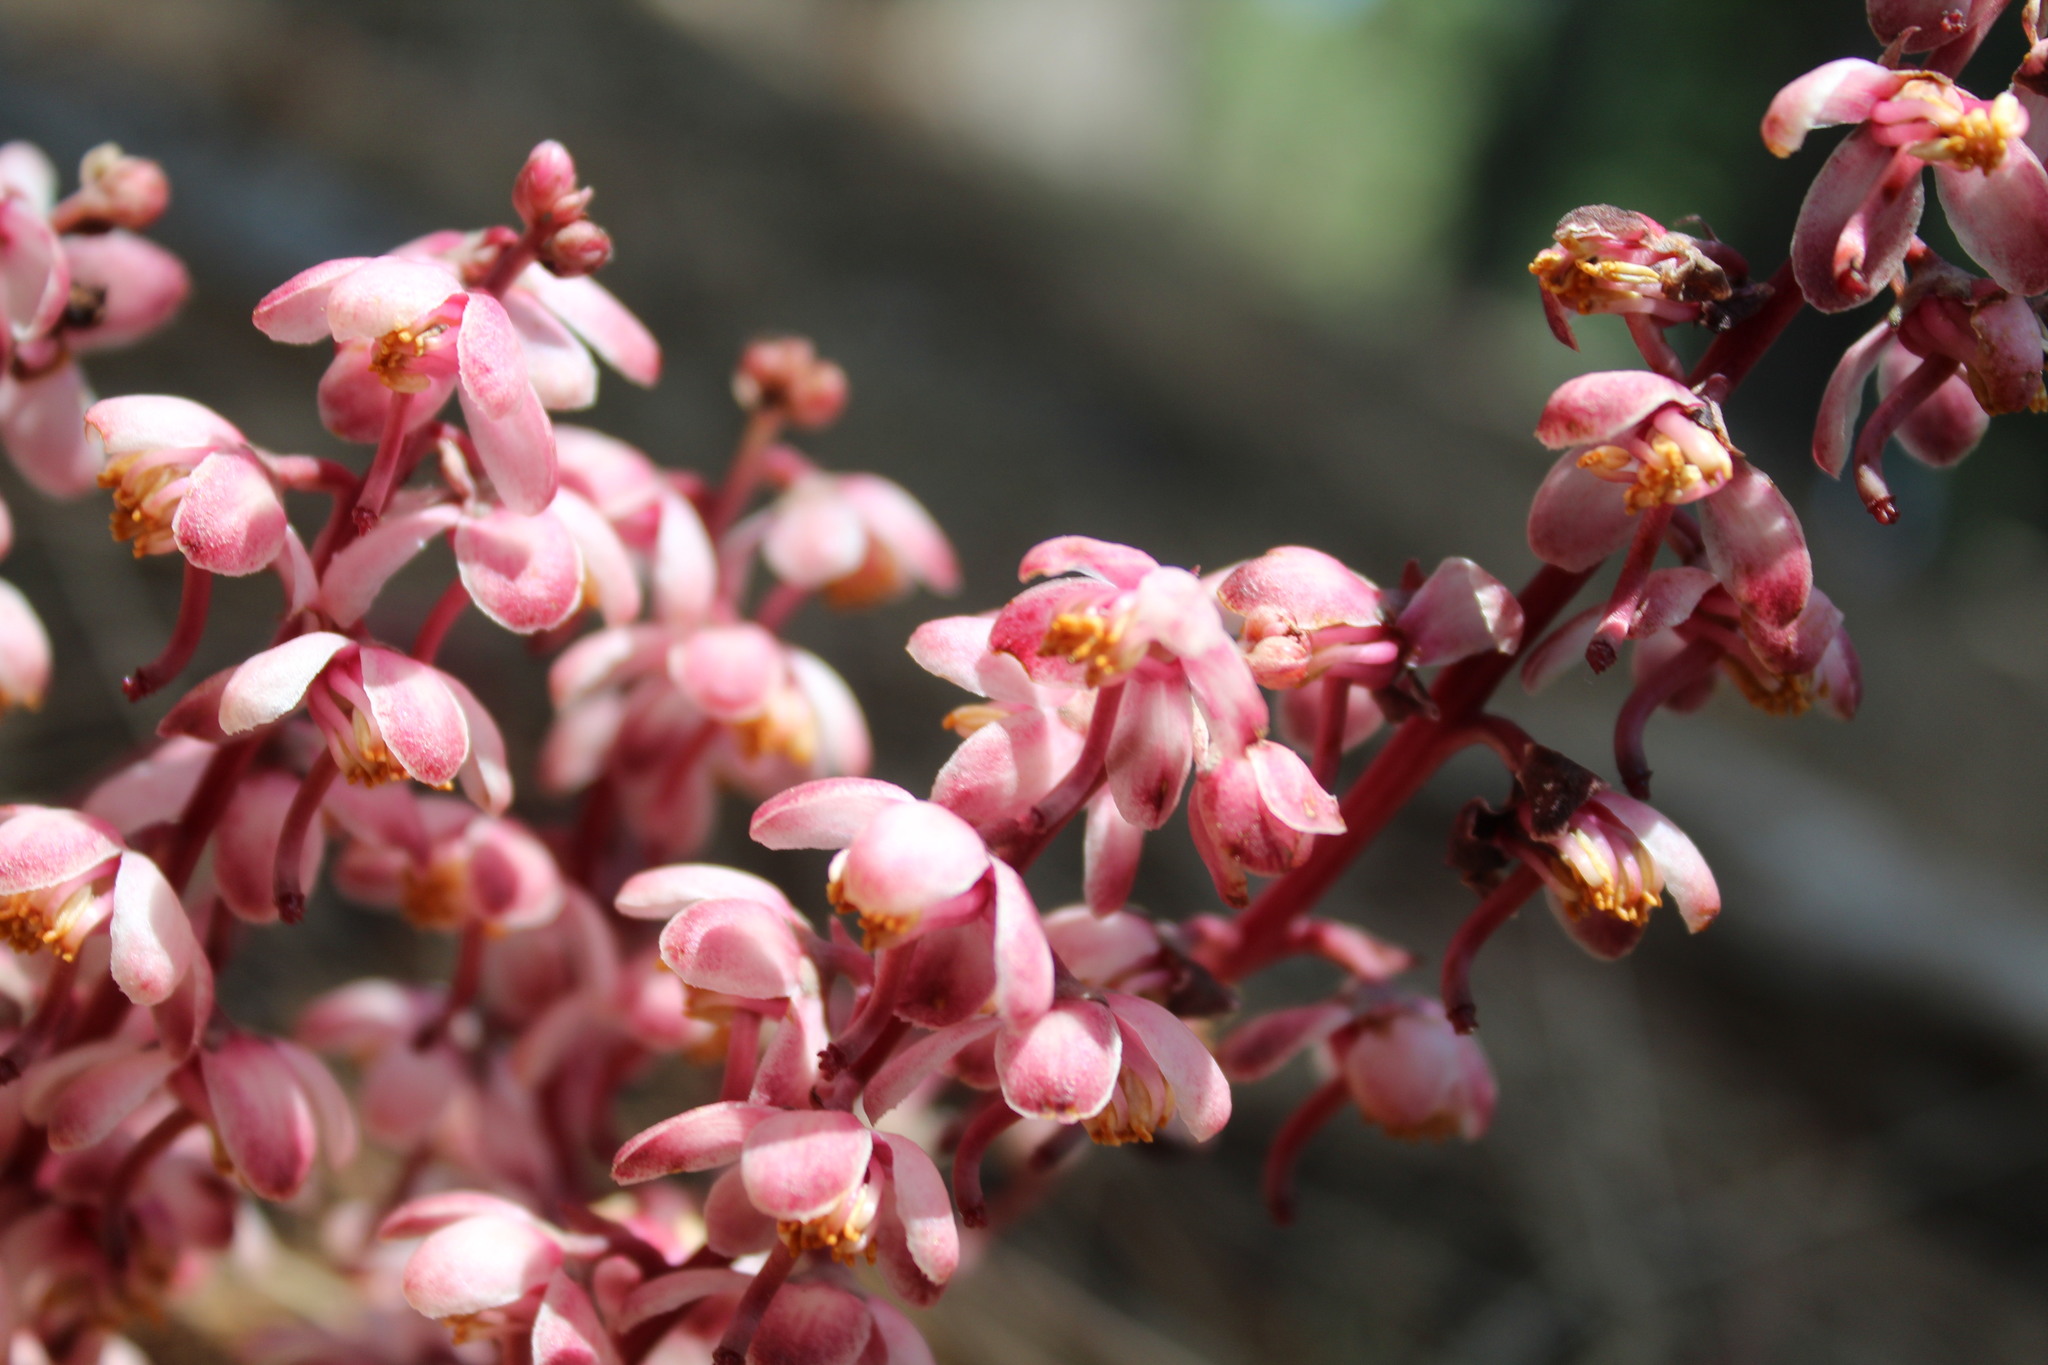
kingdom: Plantae
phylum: Tracheophyta
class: Magnoliopsida
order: Ericales
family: Ericaceae
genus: Pyrola
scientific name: Pyrola aphylla
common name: Leafless wintergreen
